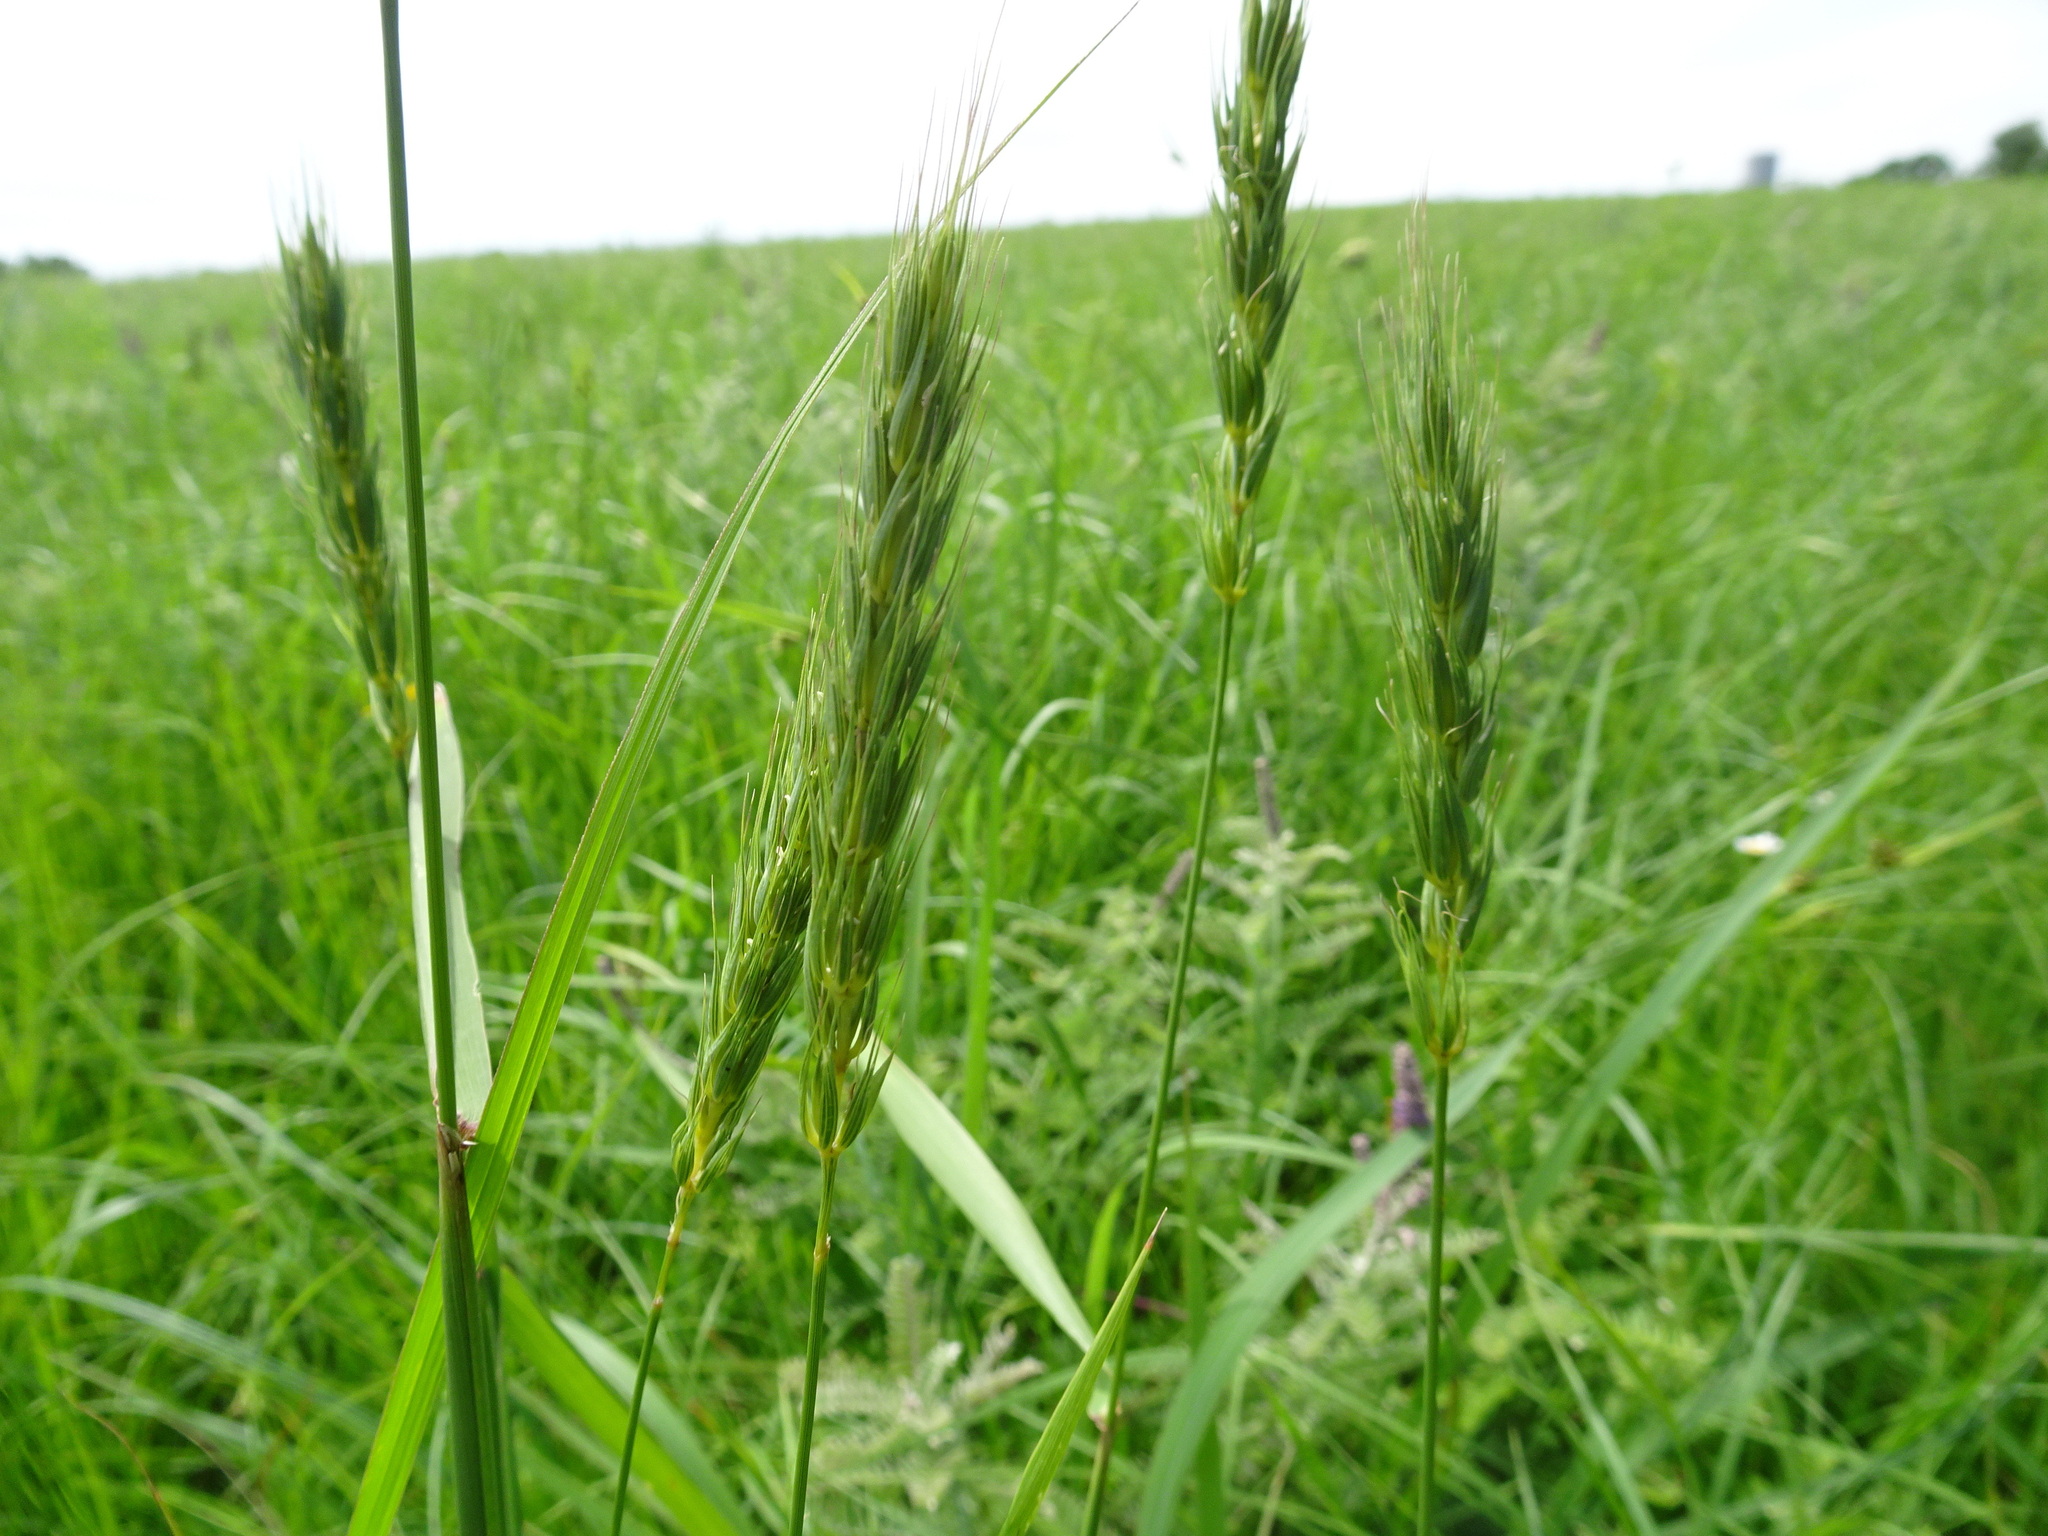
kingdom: Plantae
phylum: Tracheophyta
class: Liliopsida
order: Poales
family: Poaceae
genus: Elymus
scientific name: Elymus virginicus
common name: Common eastern wildrye
